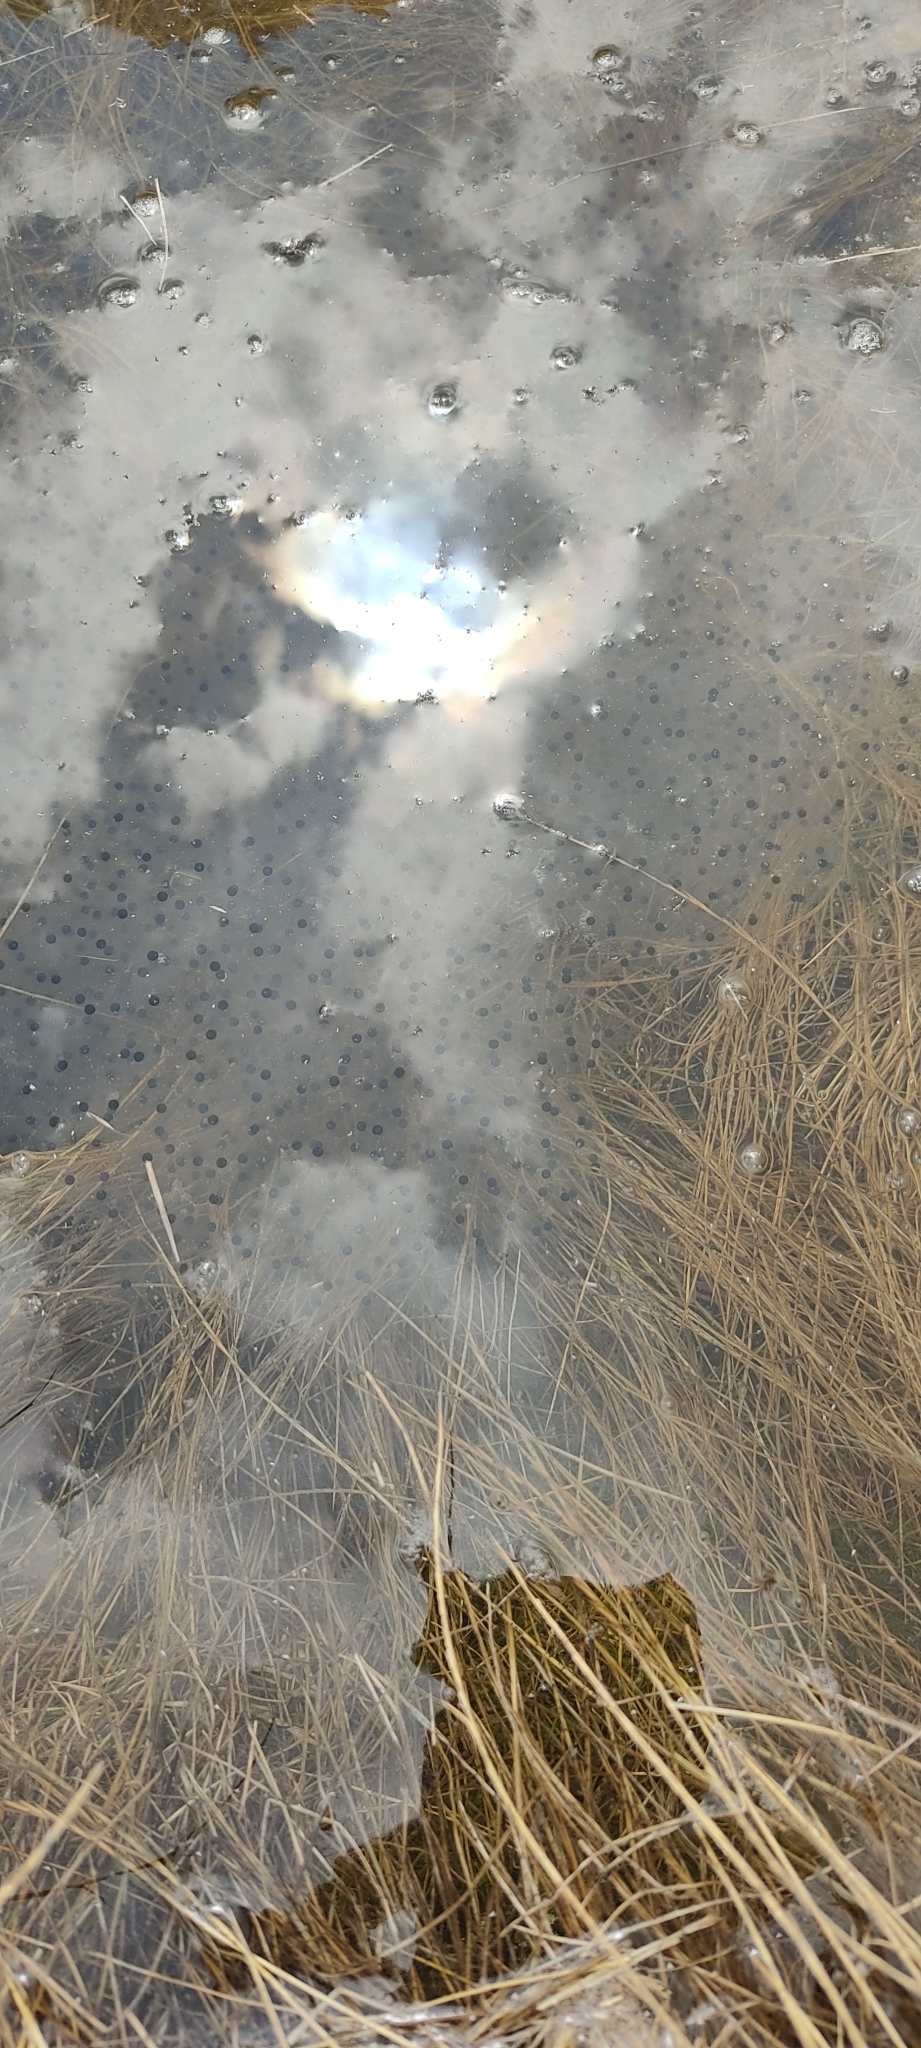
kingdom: Animalia
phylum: Chordata
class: Amphibia
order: Anura
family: Ranidae
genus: Rana
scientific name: Rana temporaria
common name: Common frog
